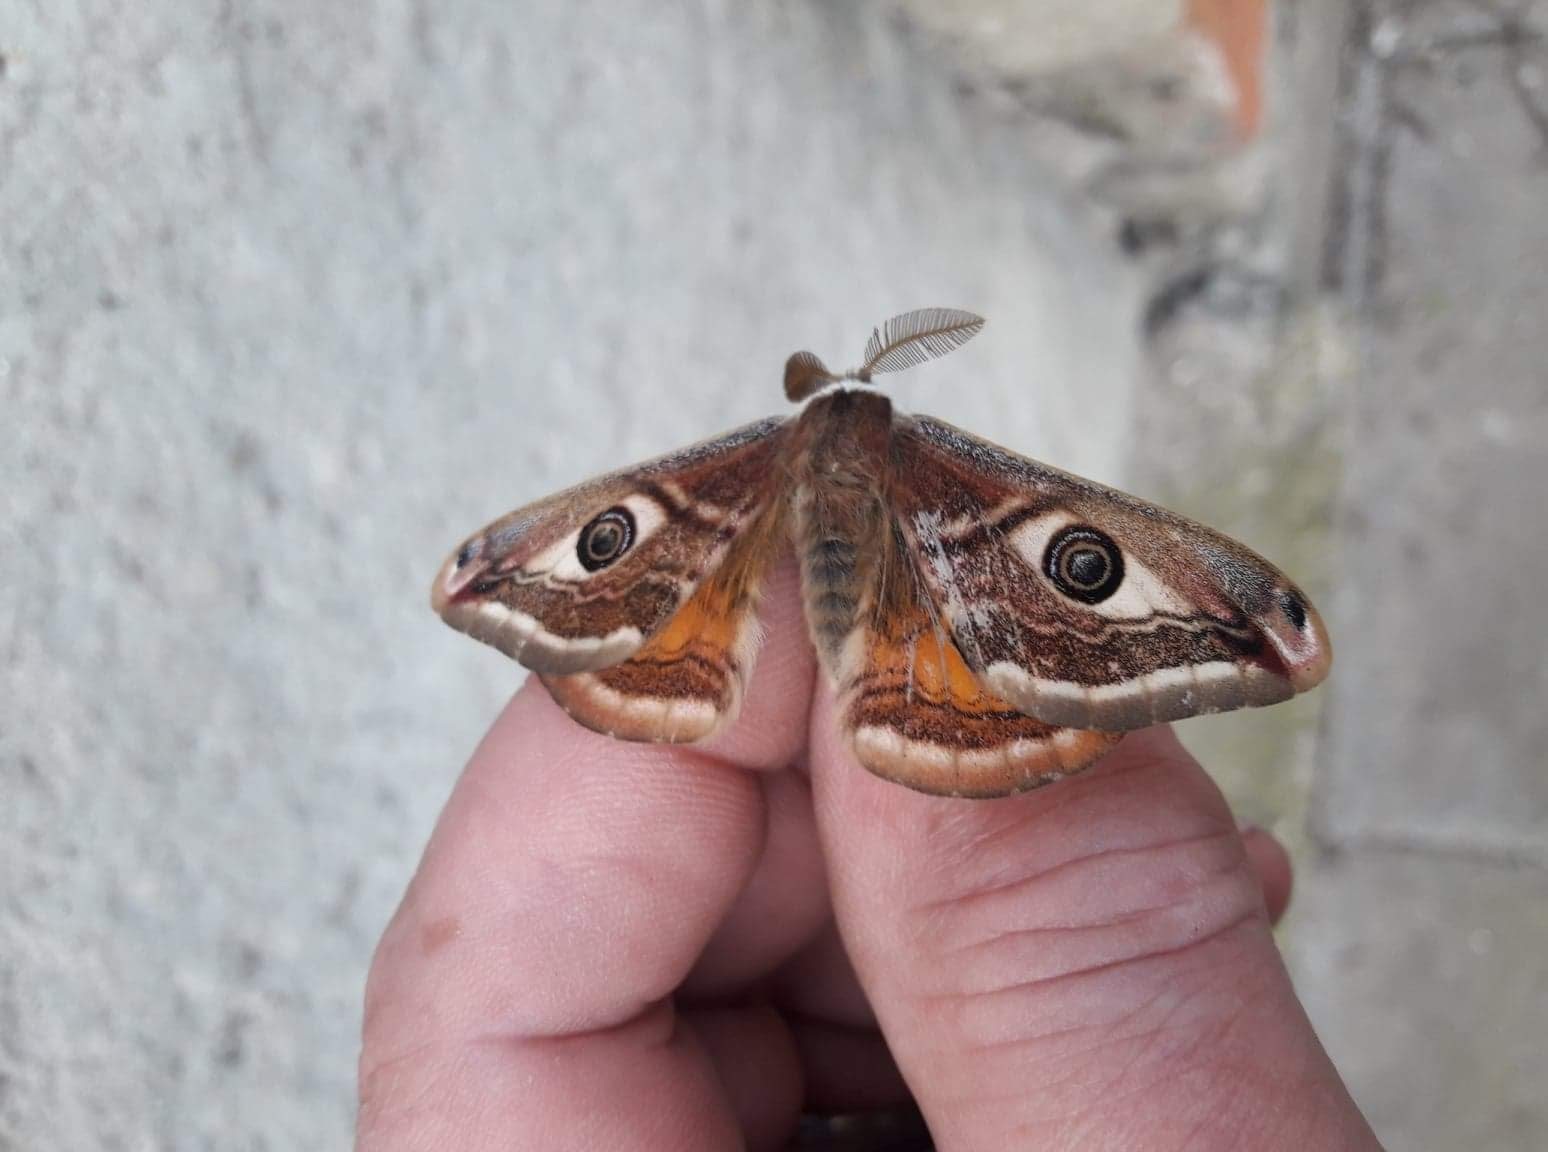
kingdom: Animalia
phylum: Arthropoda
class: Insecta
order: Lepidoptera
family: Saturniidae
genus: Saturnia
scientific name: Saturnia pavoniella
